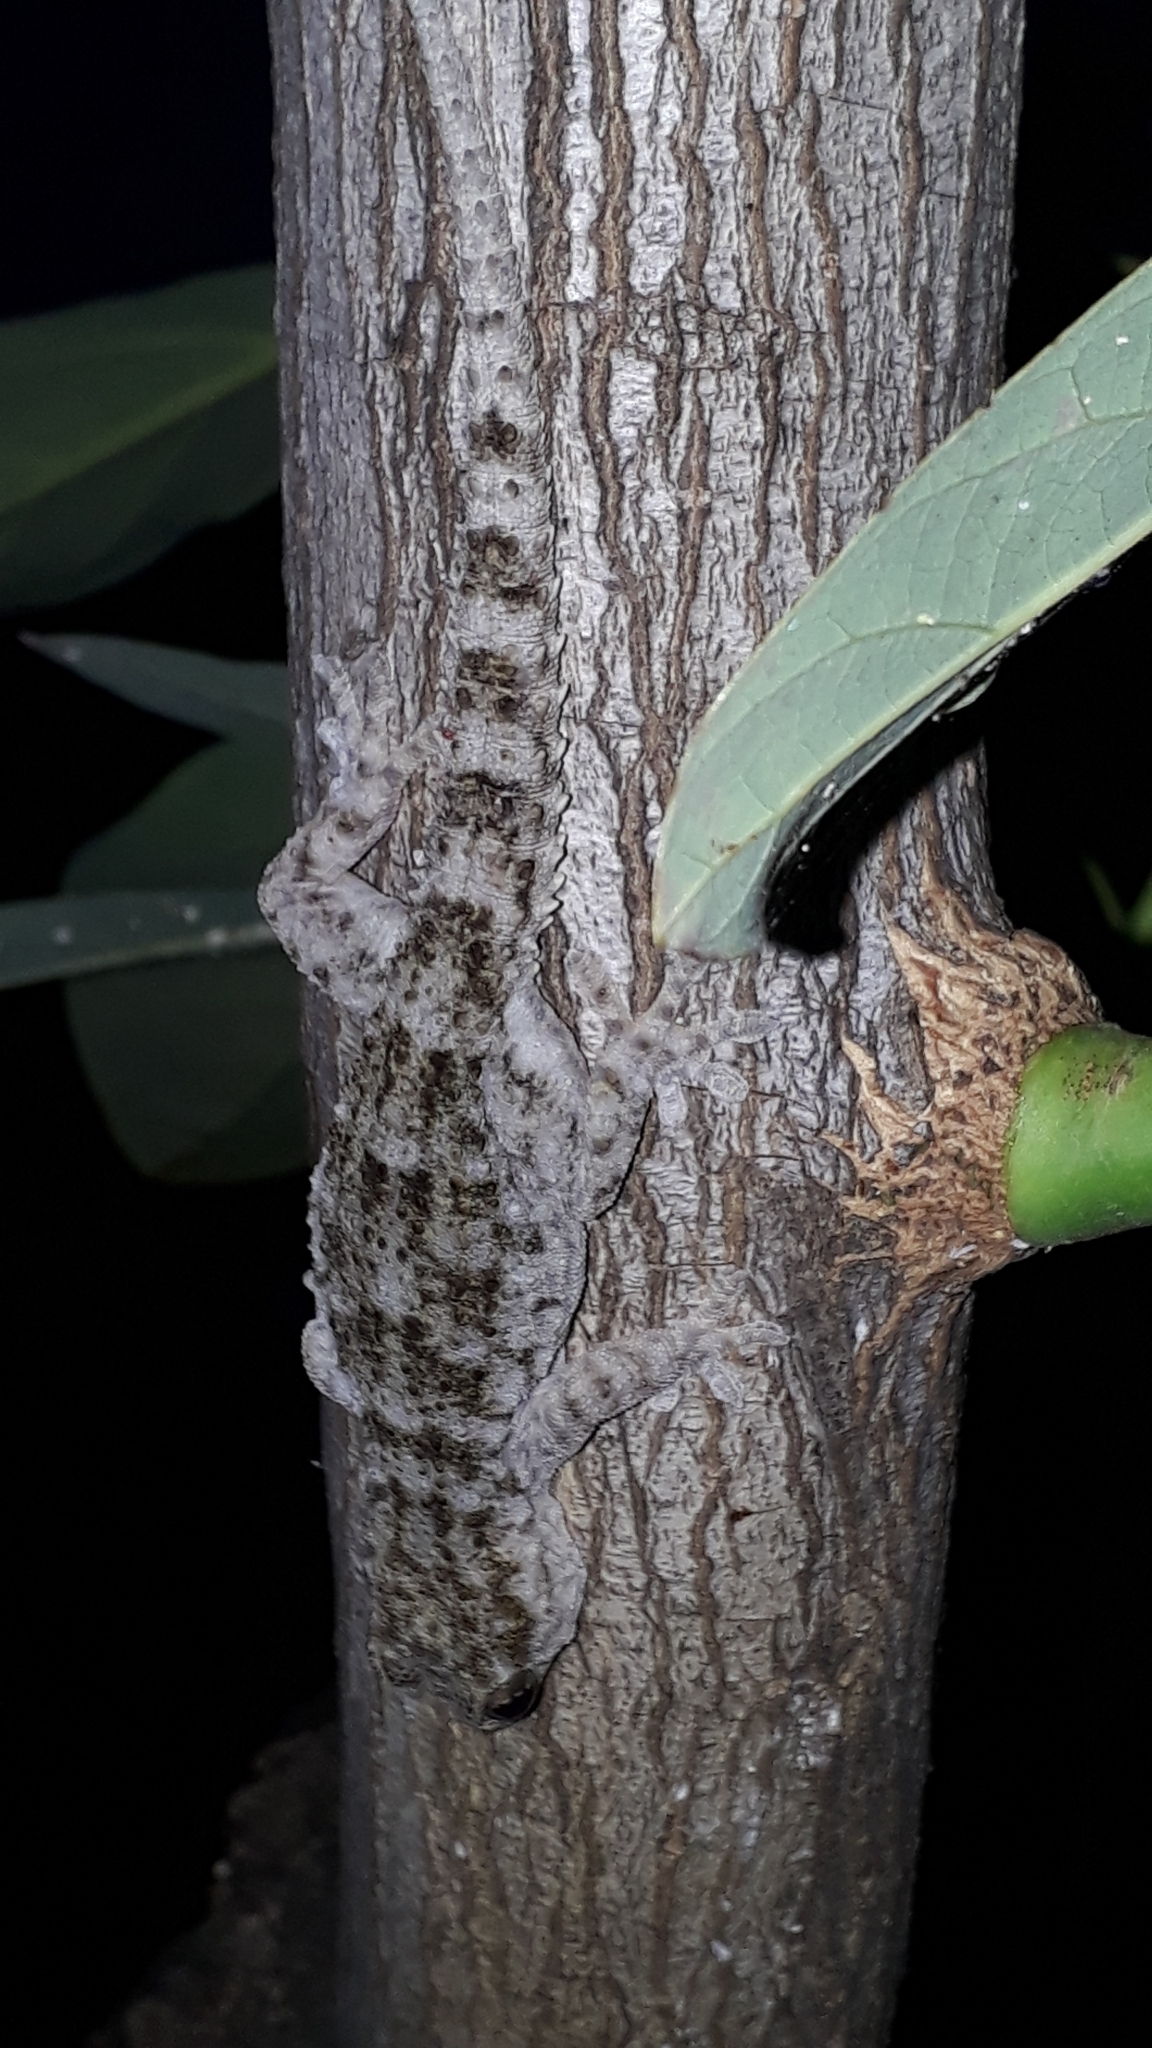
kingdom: Animalia
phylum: Chordata
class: Squamata
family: Phyllodactylidae
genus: Tarentola
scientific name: Tarentola delalandii
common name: Tenerife wall gecko
